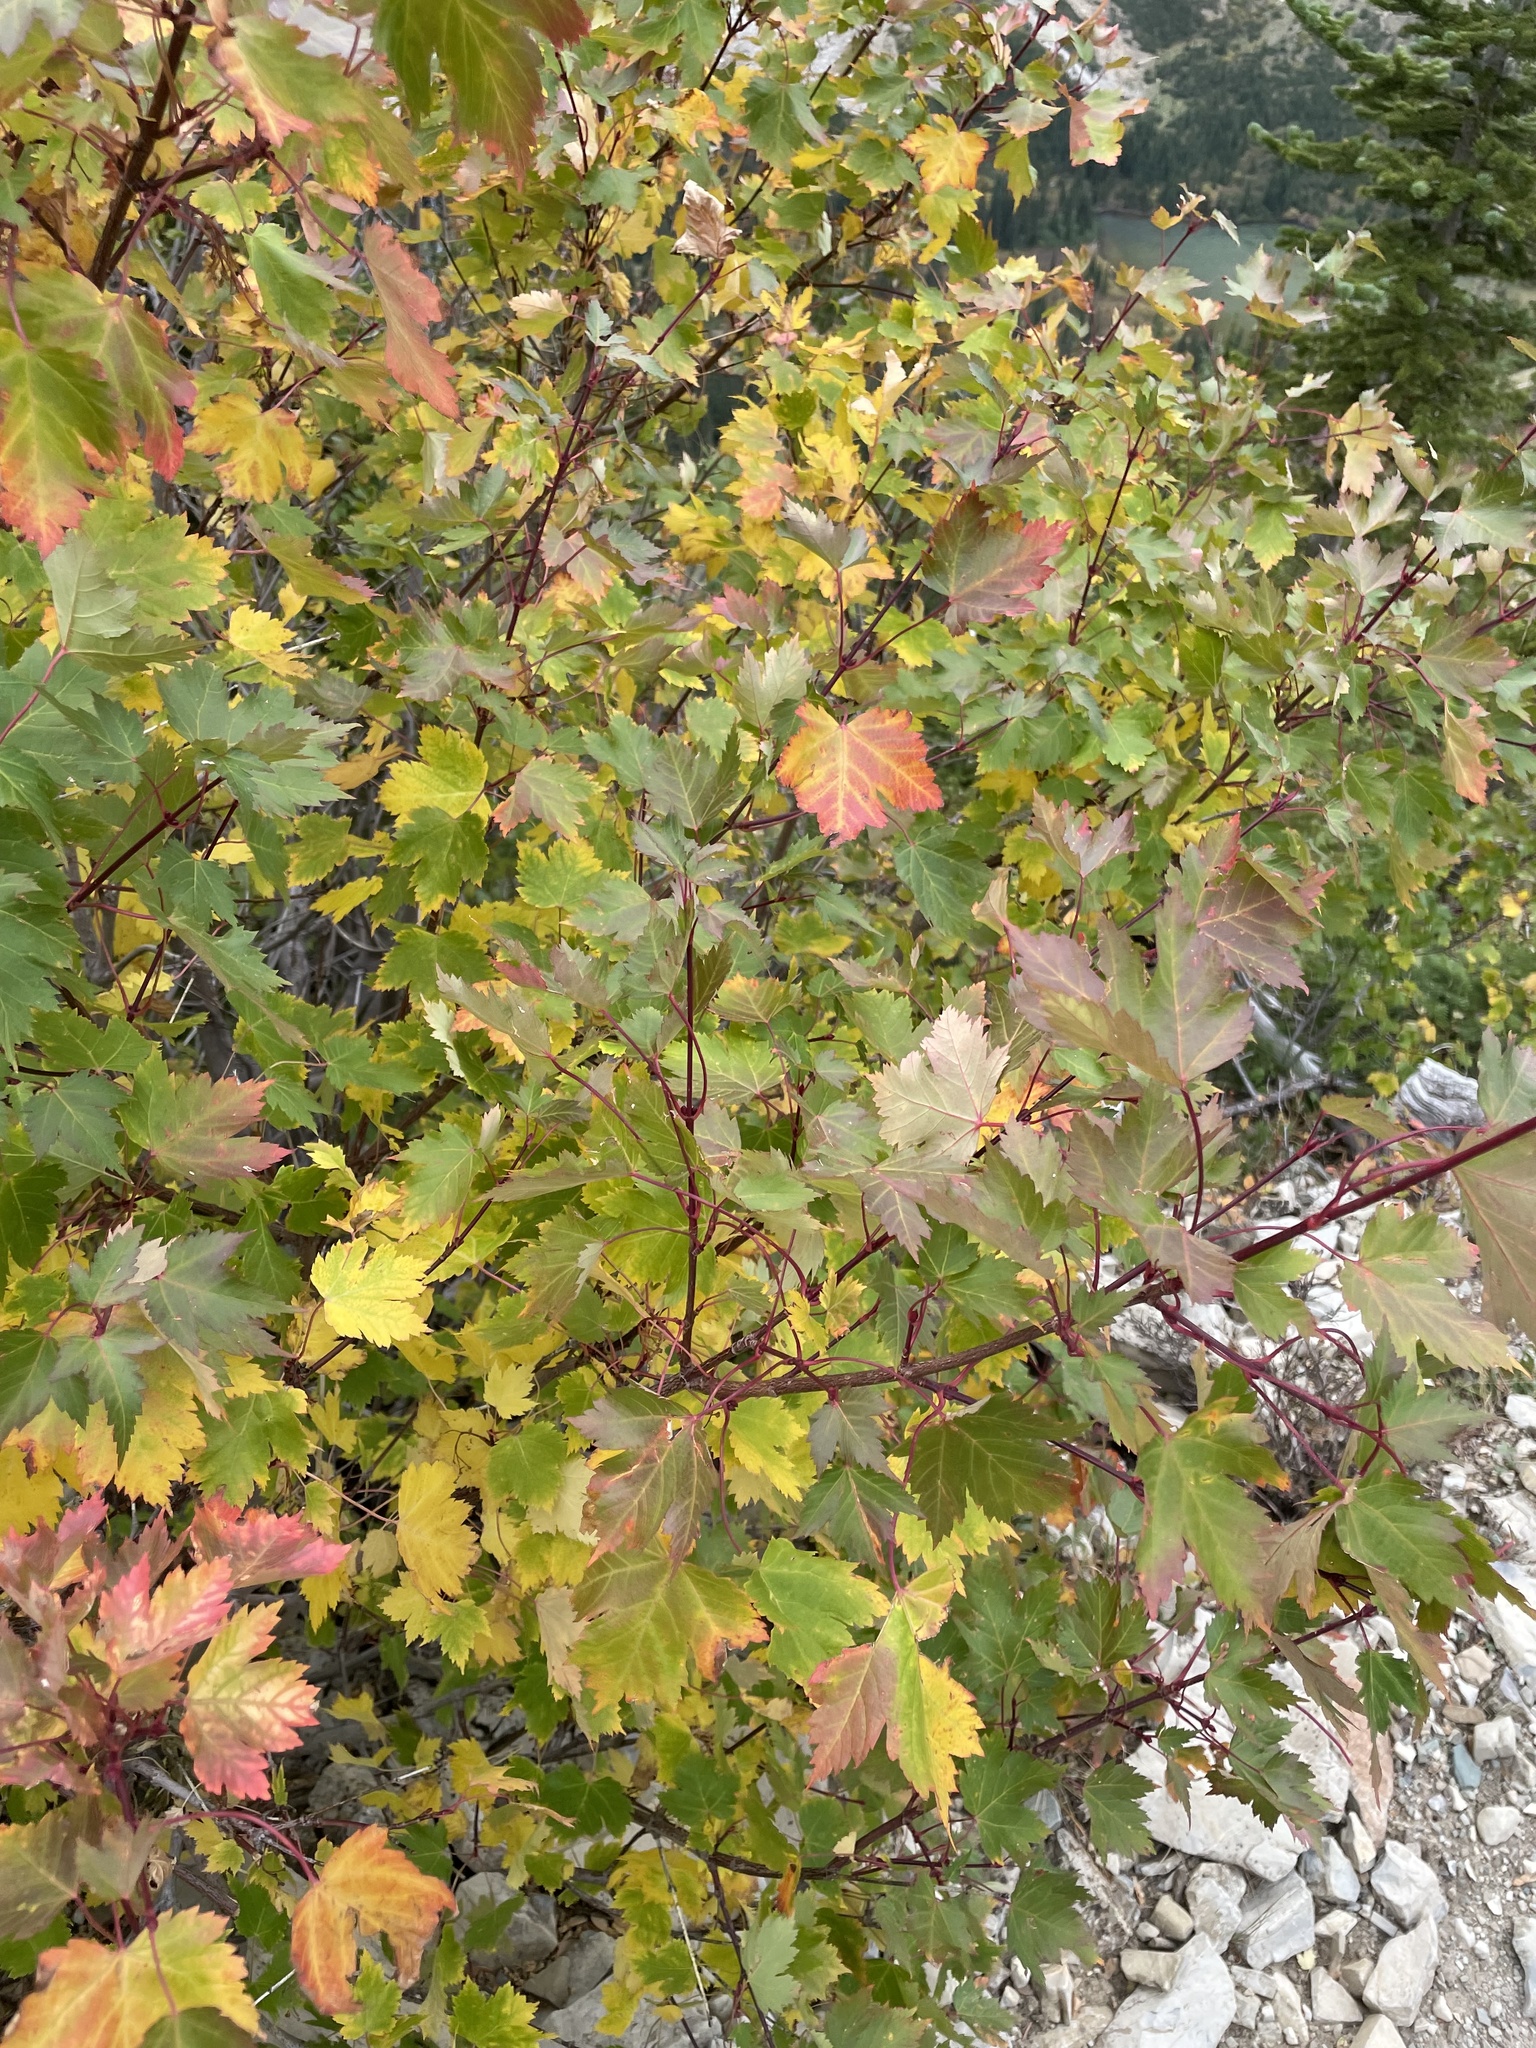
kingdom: Plantae
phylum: Tracheophyta
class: Magnoliopsida
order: Sapindales
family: Sapindaceae
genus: Acer
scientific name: Acer glabrum
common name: Rocky mountain maple
